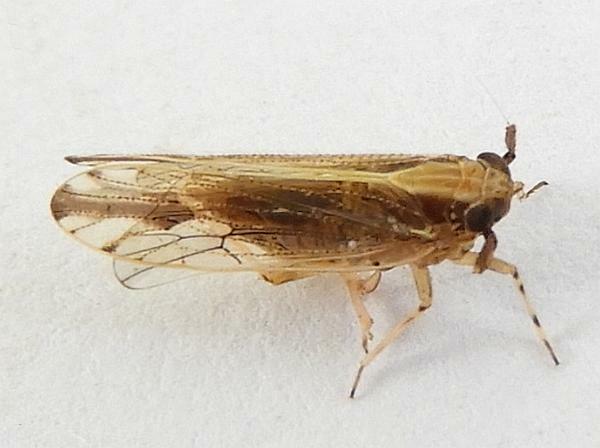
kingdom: Animalia
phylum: Arthropoda
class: Insecta
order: Hemiptera
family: Delphacidae
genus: Perkinsiella
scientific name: Perkinsiella saccharicida
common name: Sugarcane leafhopper
